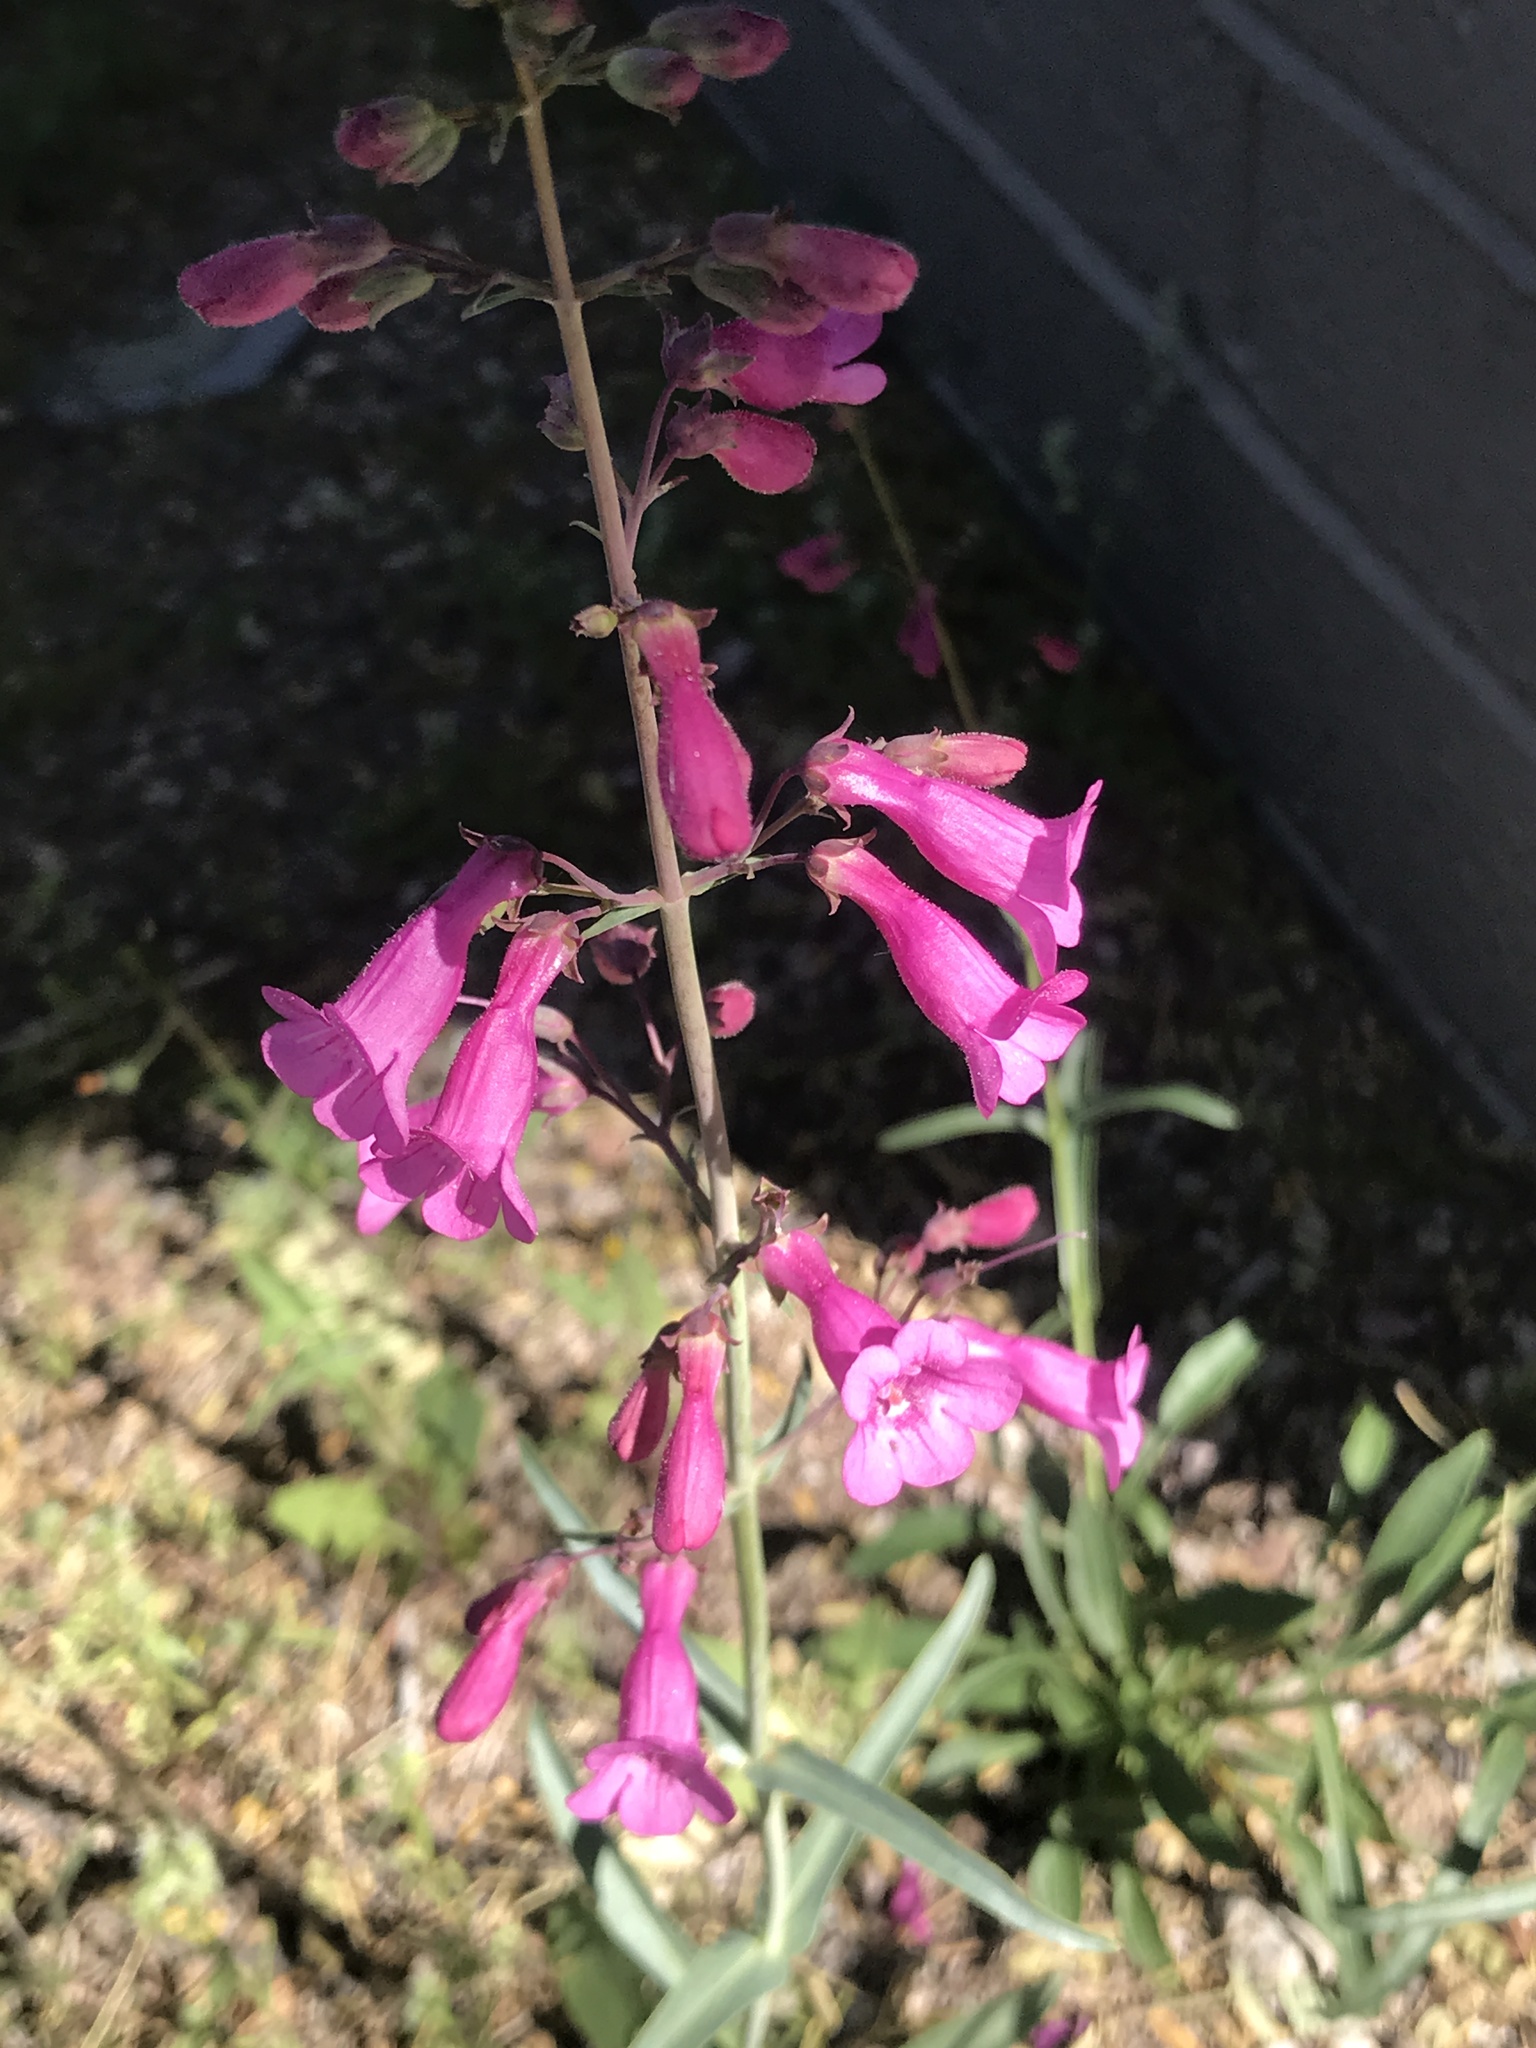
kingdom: Plantae
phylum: Tracheophyta
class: Magnoliopsida
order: Lamiales
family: Plantaginaceae
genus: Penstemon
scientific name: Penstemon parryi
